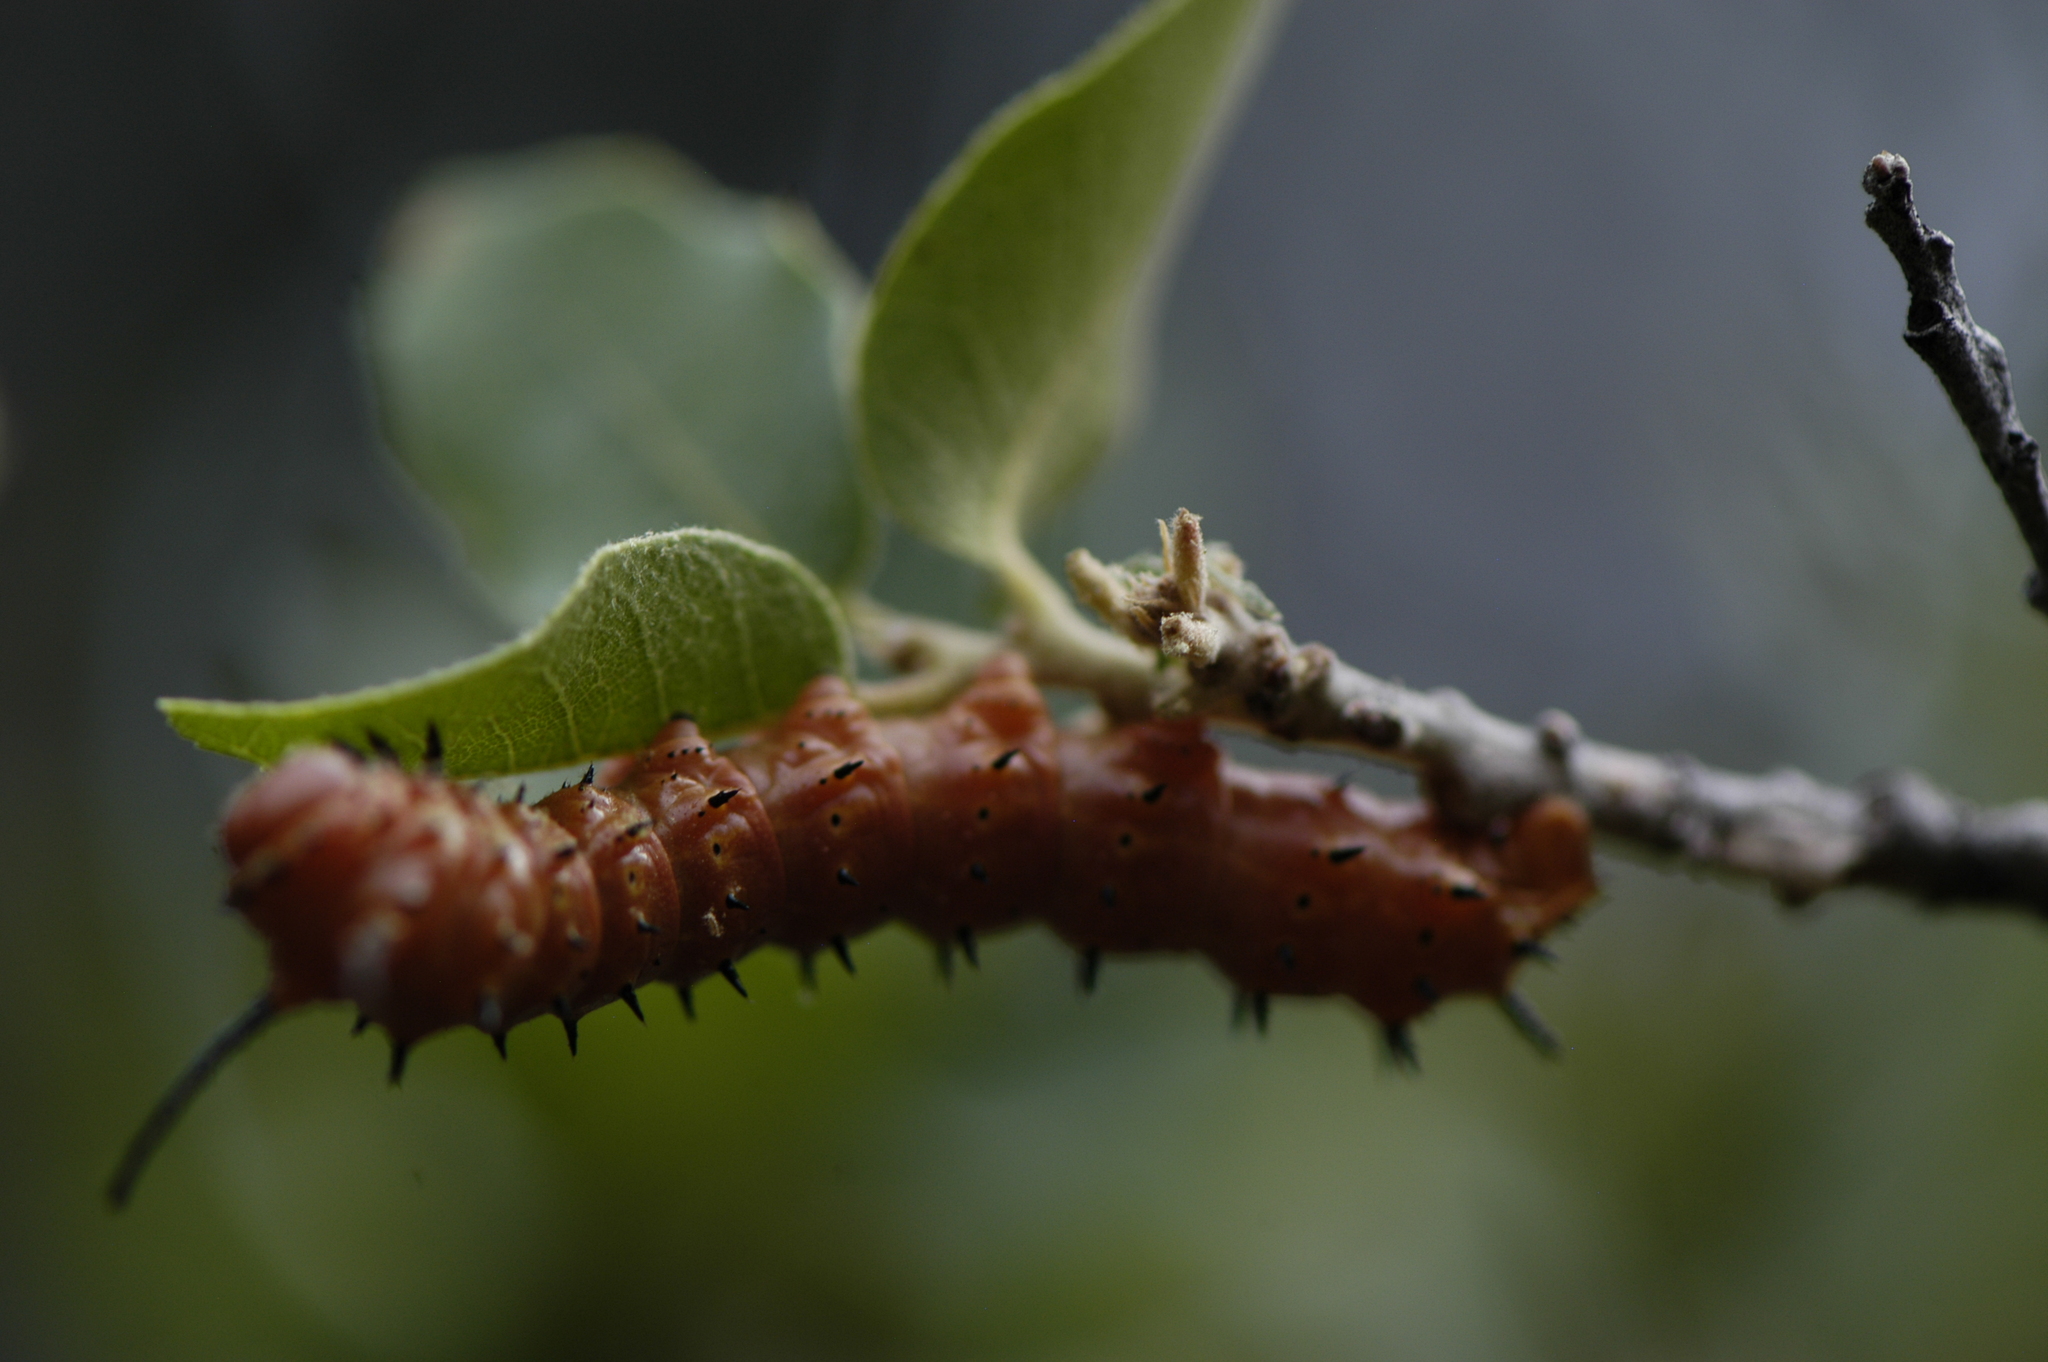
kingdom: Animalia
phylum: Arthropoda
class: Insecta
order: Lepidoptera
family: Saturniidae
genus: Anisota
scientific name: Anisota oslari
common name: Oslar's oakworm moth
